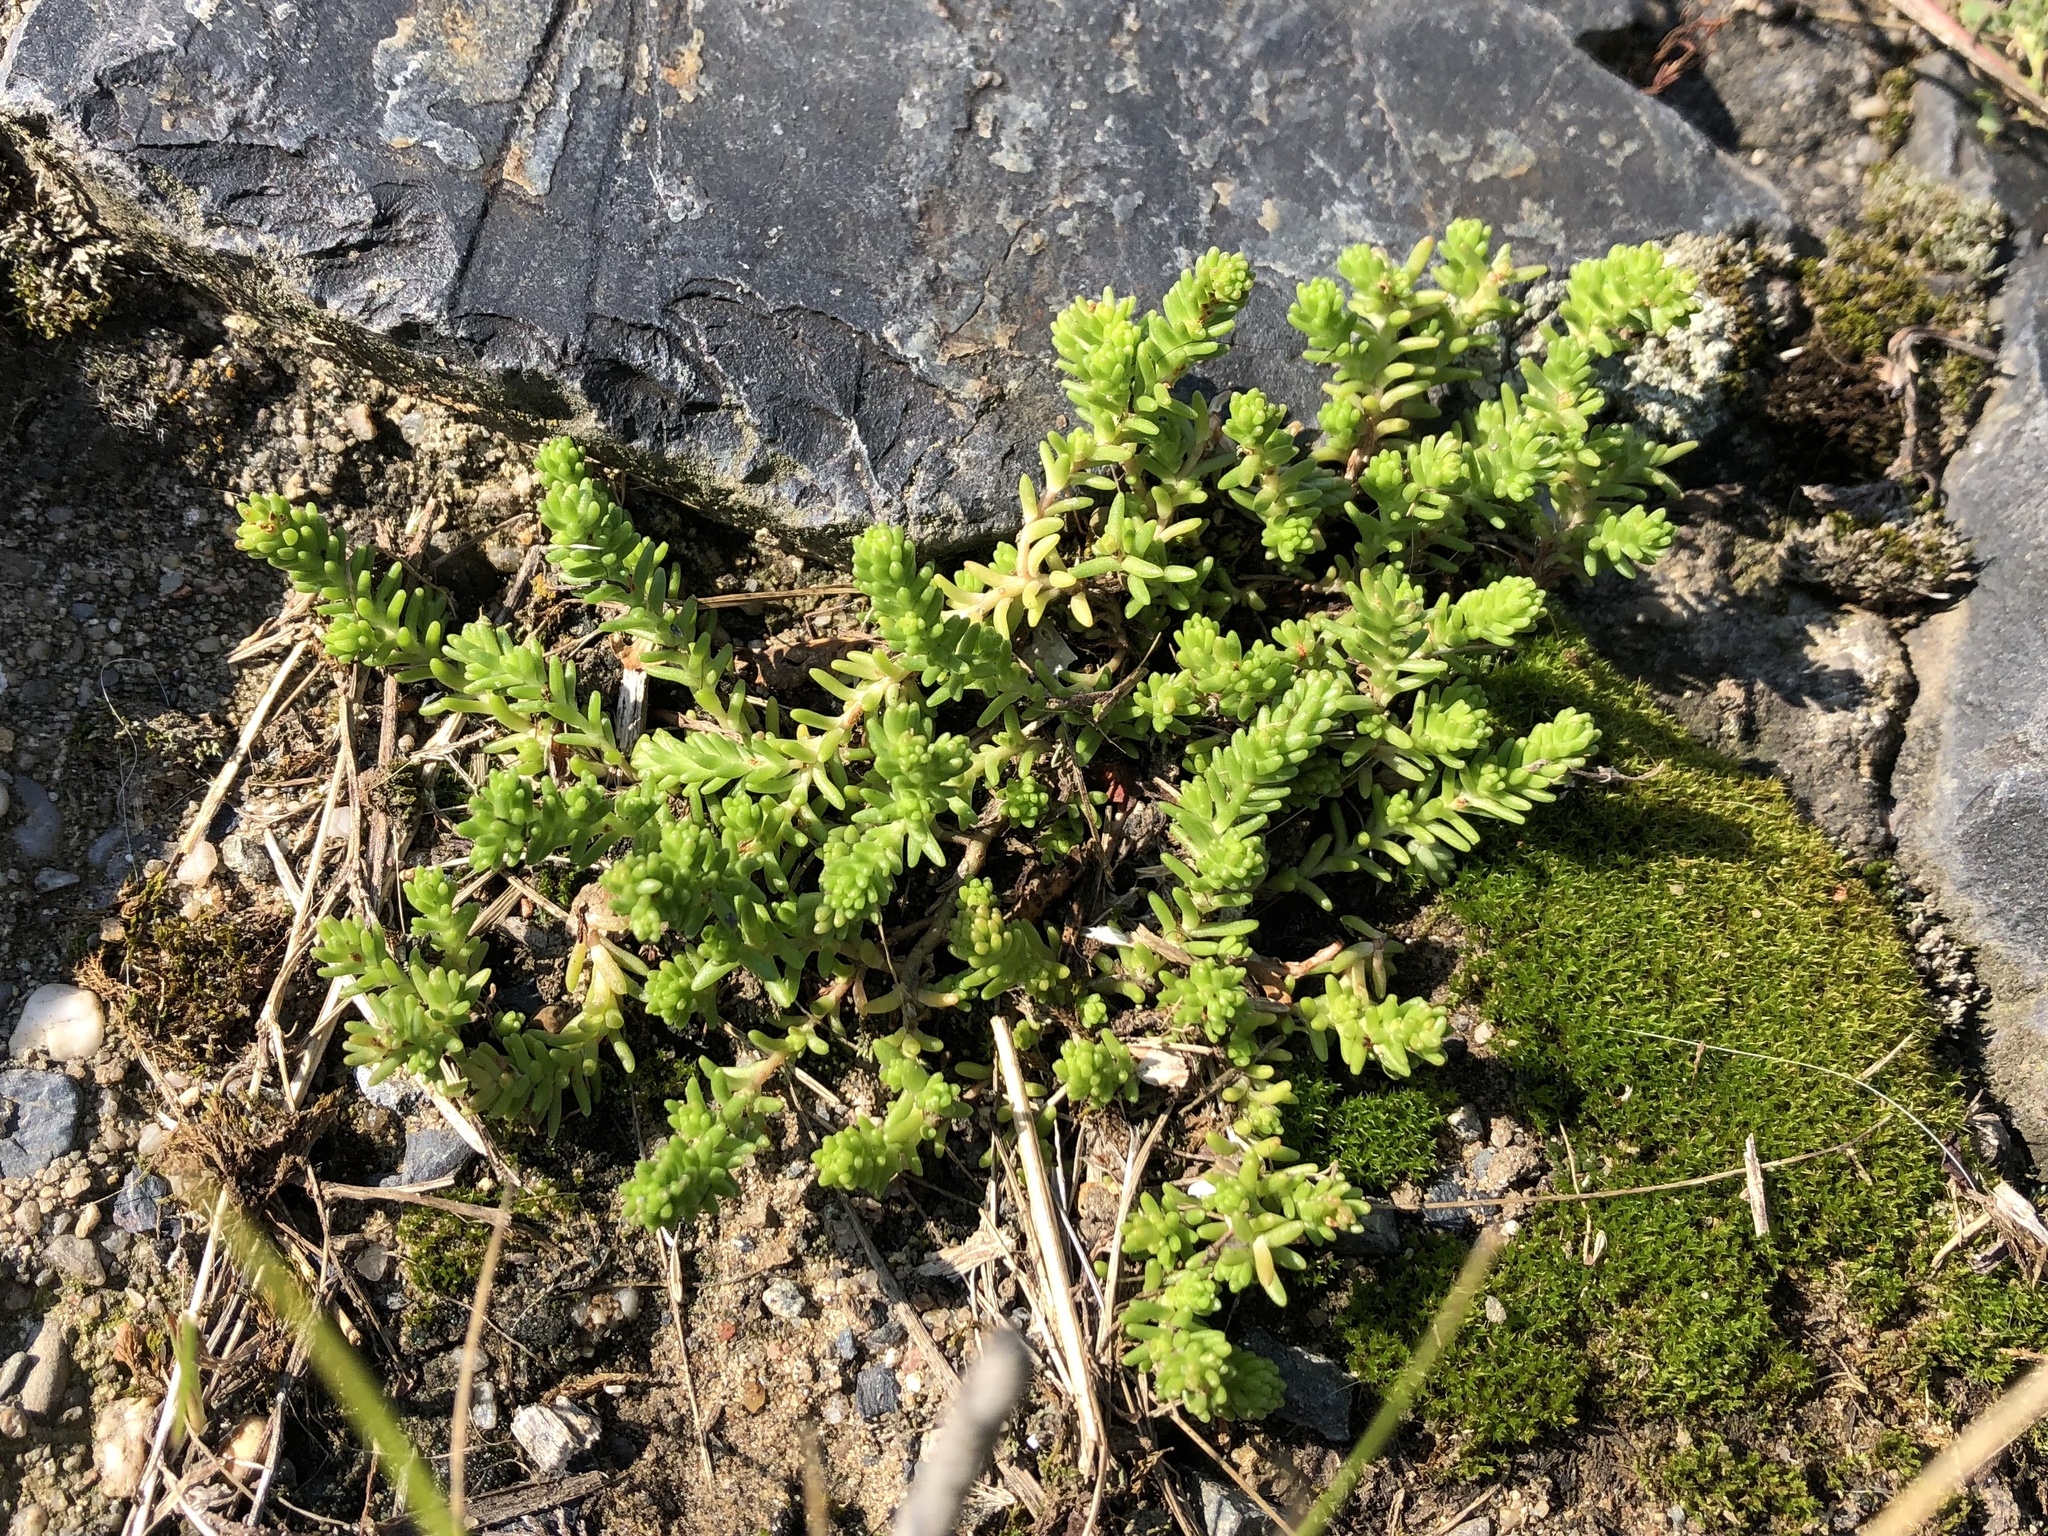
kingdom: Plantae
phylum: Tracheophyta
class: Magnoliopsida
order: Saxifragales
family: Crassulaceae
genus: Sedum
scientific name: Sedum sexangulare
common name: Tasteless stonecrop
